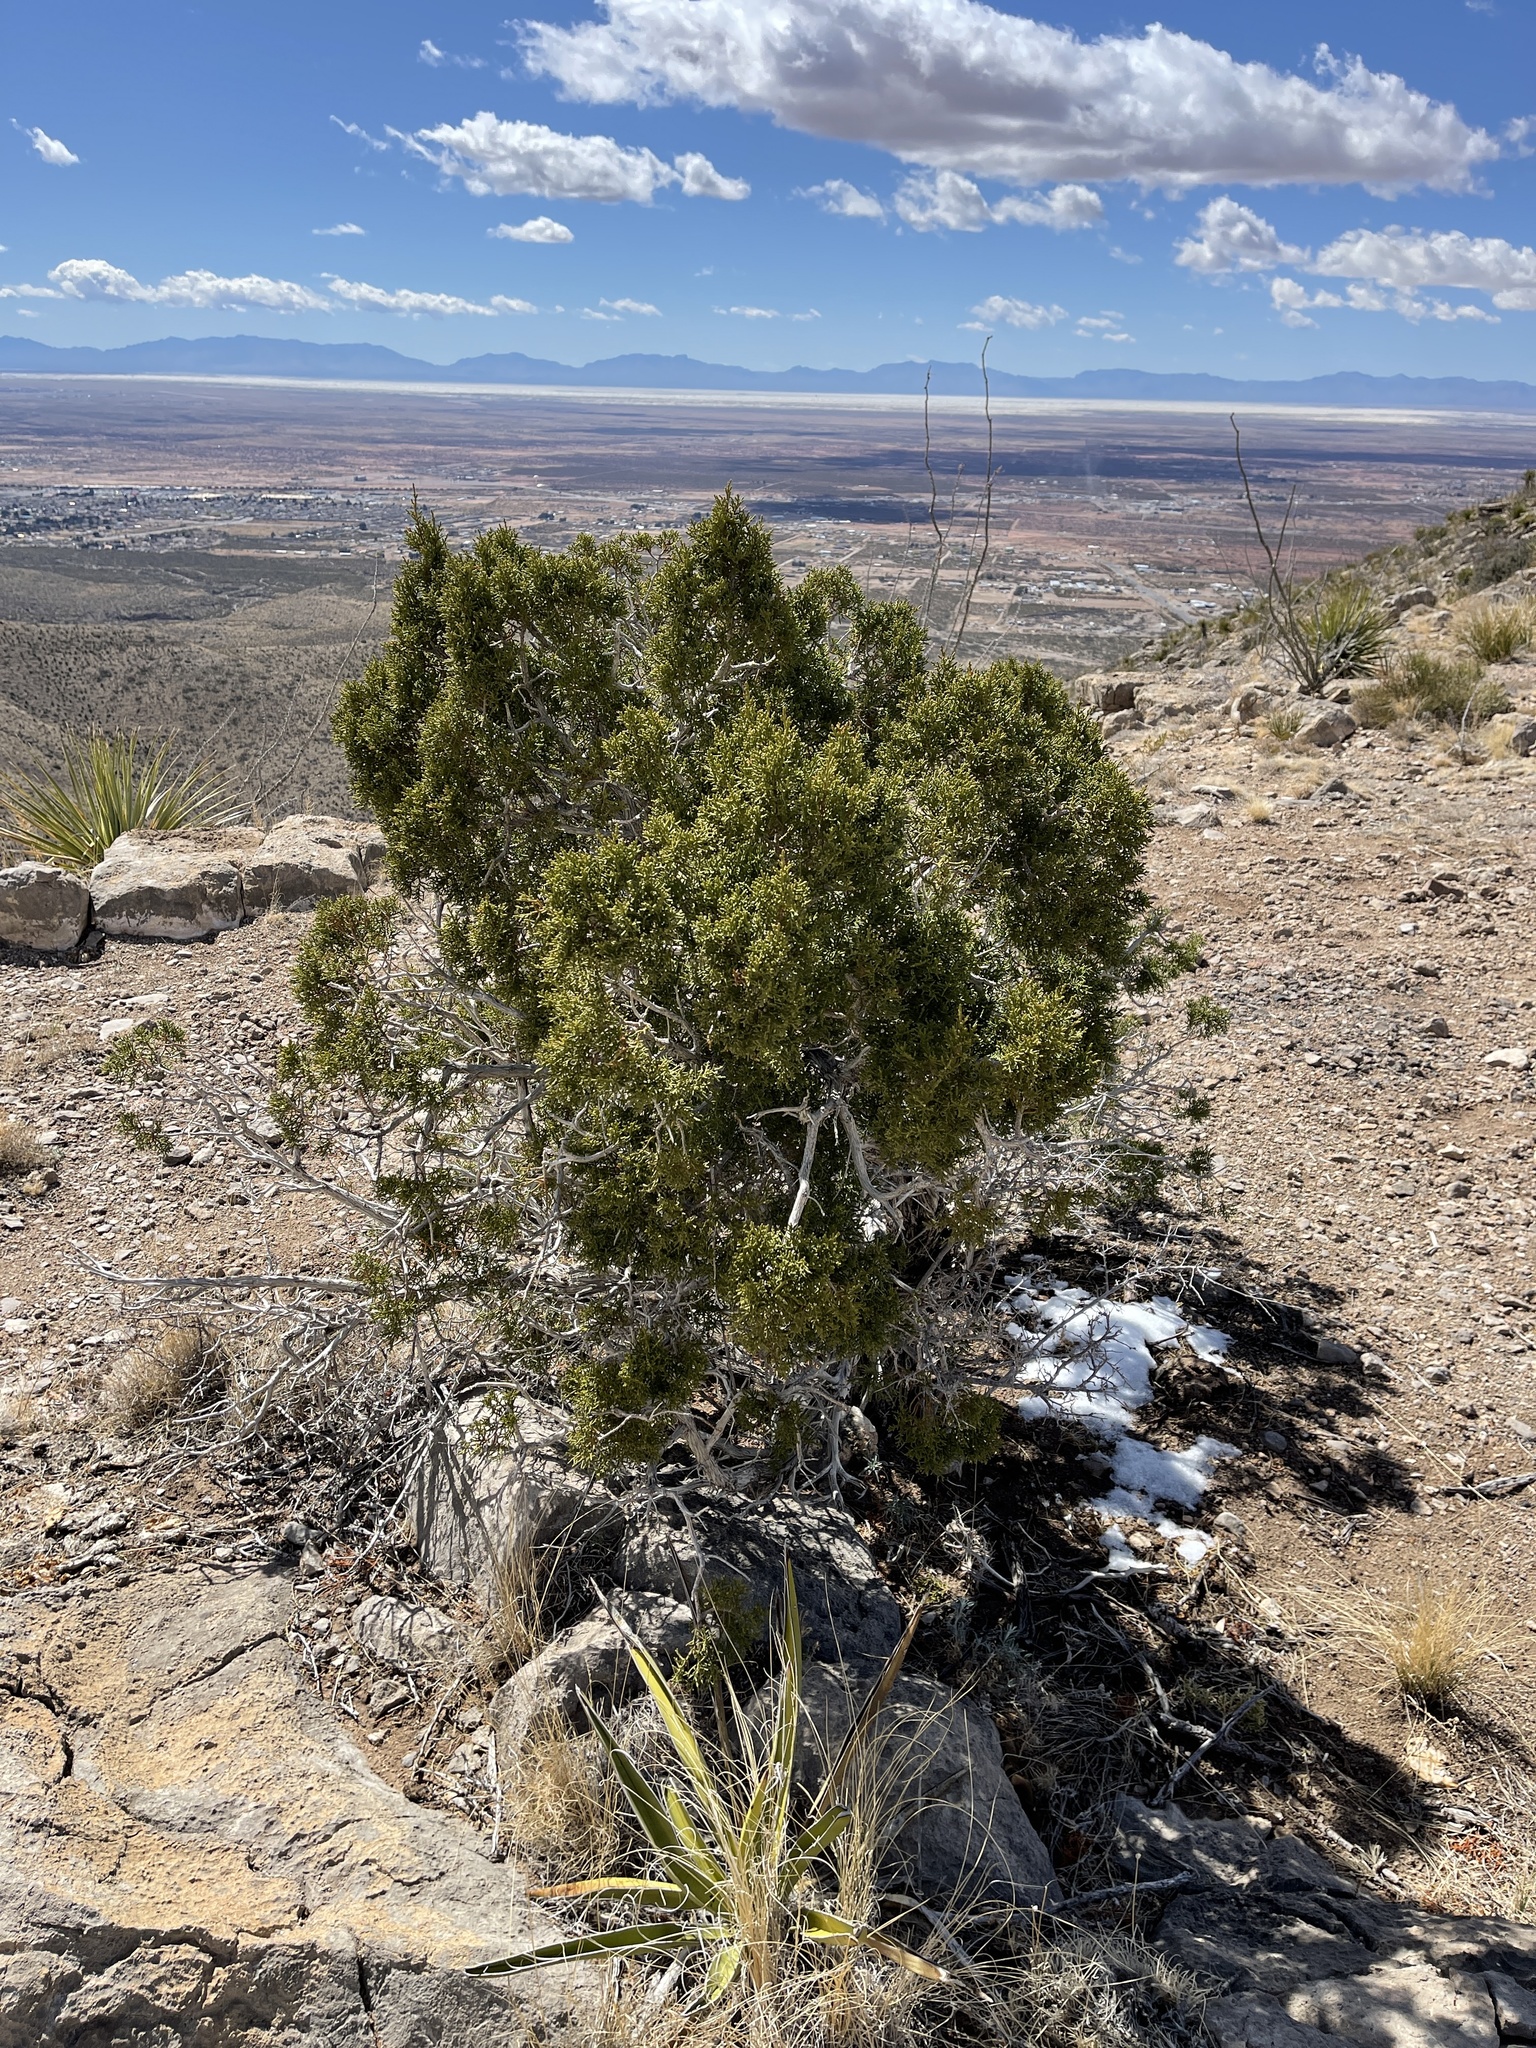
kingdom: Plantae
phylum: Tracheophyta
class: Pinopsida
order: Pinales
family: Cupressaceae
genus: Juniperus
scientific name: Juniperus monosperma
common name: One-seed juniper
